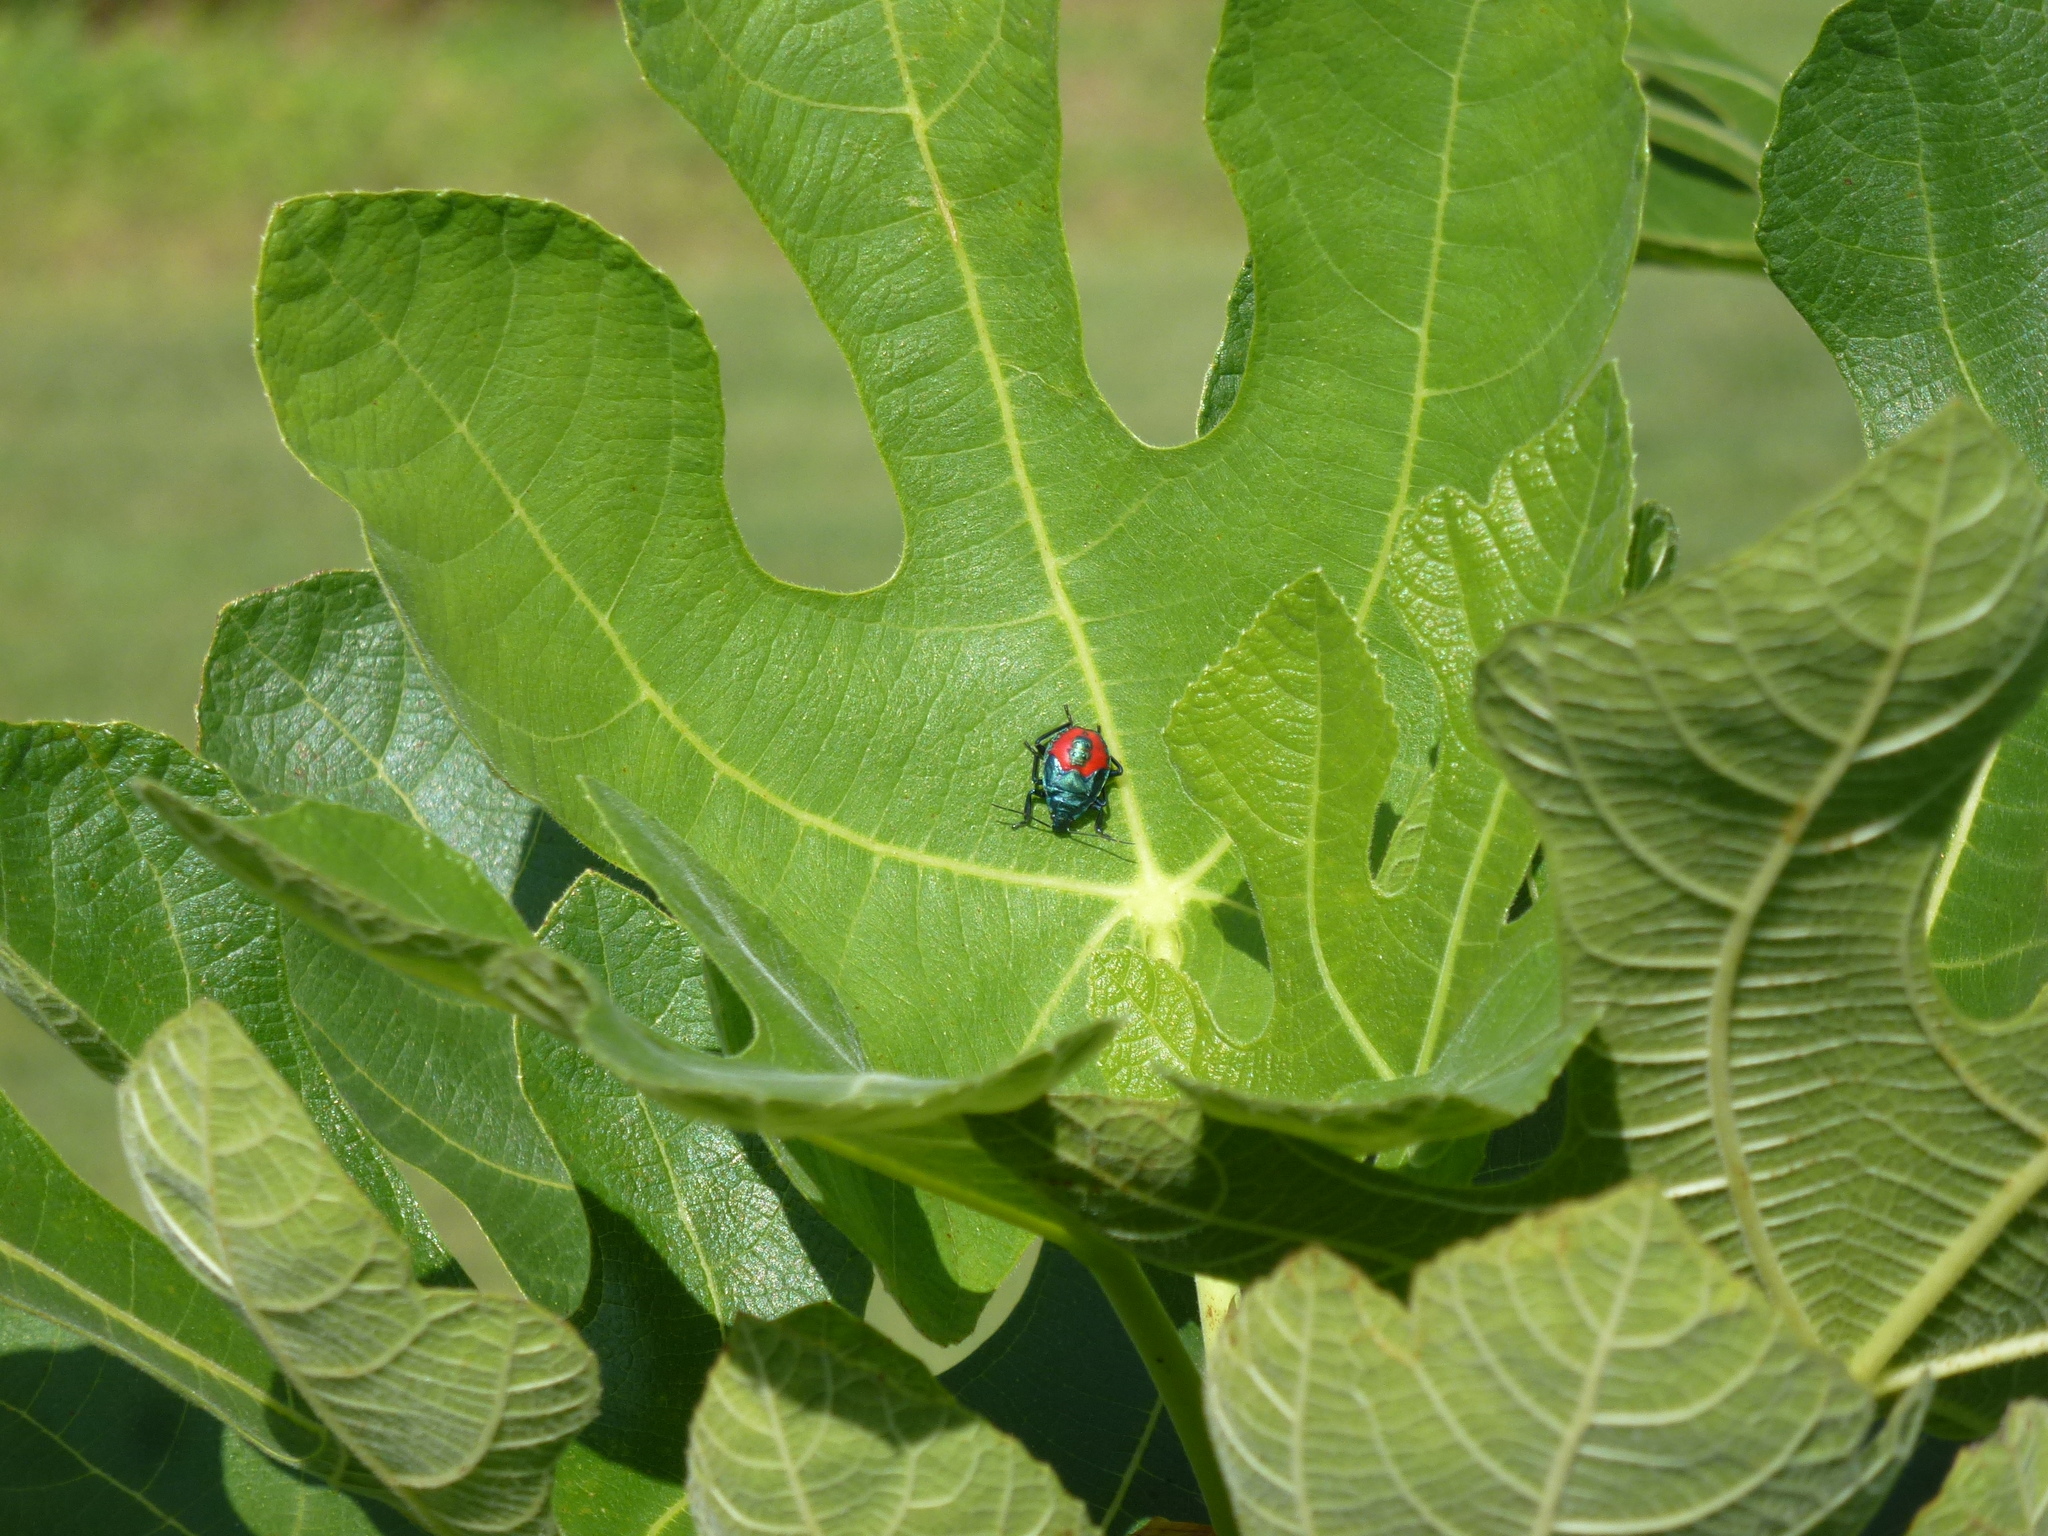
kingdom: Animalia
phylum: Arthropoda
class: Insecta
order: Hemiptera
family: Pentatomidae
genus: Euthyrhynchus
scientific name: Euthyrhynchus floridanus
